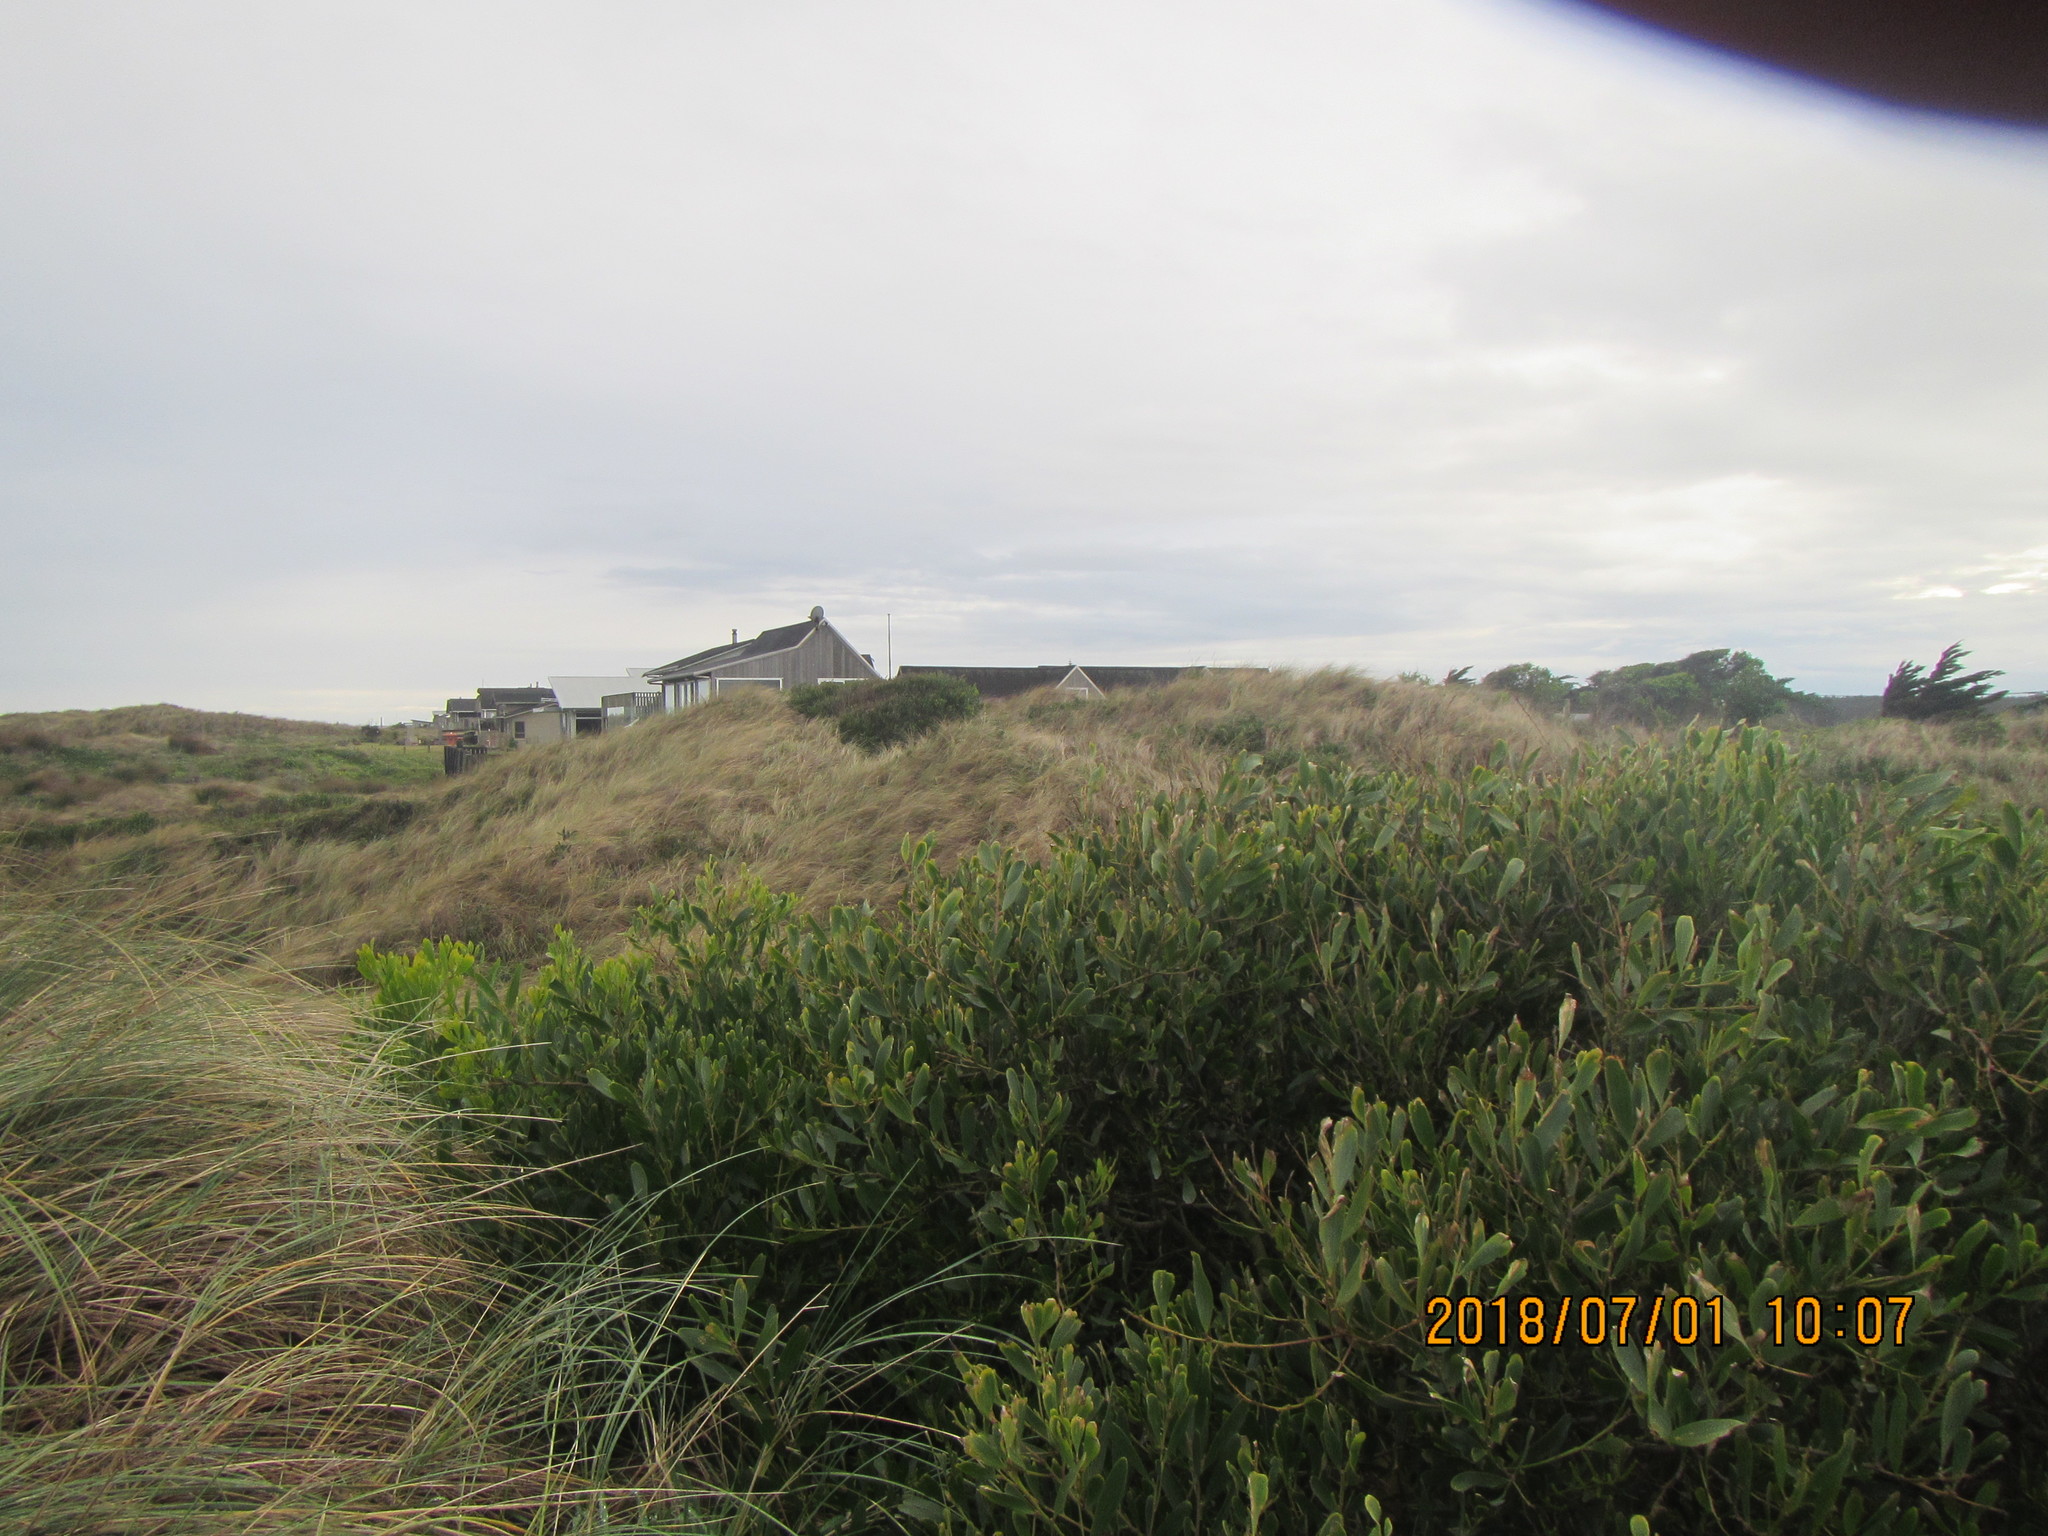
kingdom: Plantae
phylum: Tracheophyta
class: Magnoliopsida
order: Fabales
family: Fabaceae
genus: Acacia
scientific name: Acacia longifolia
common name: Sydney golden wattle
